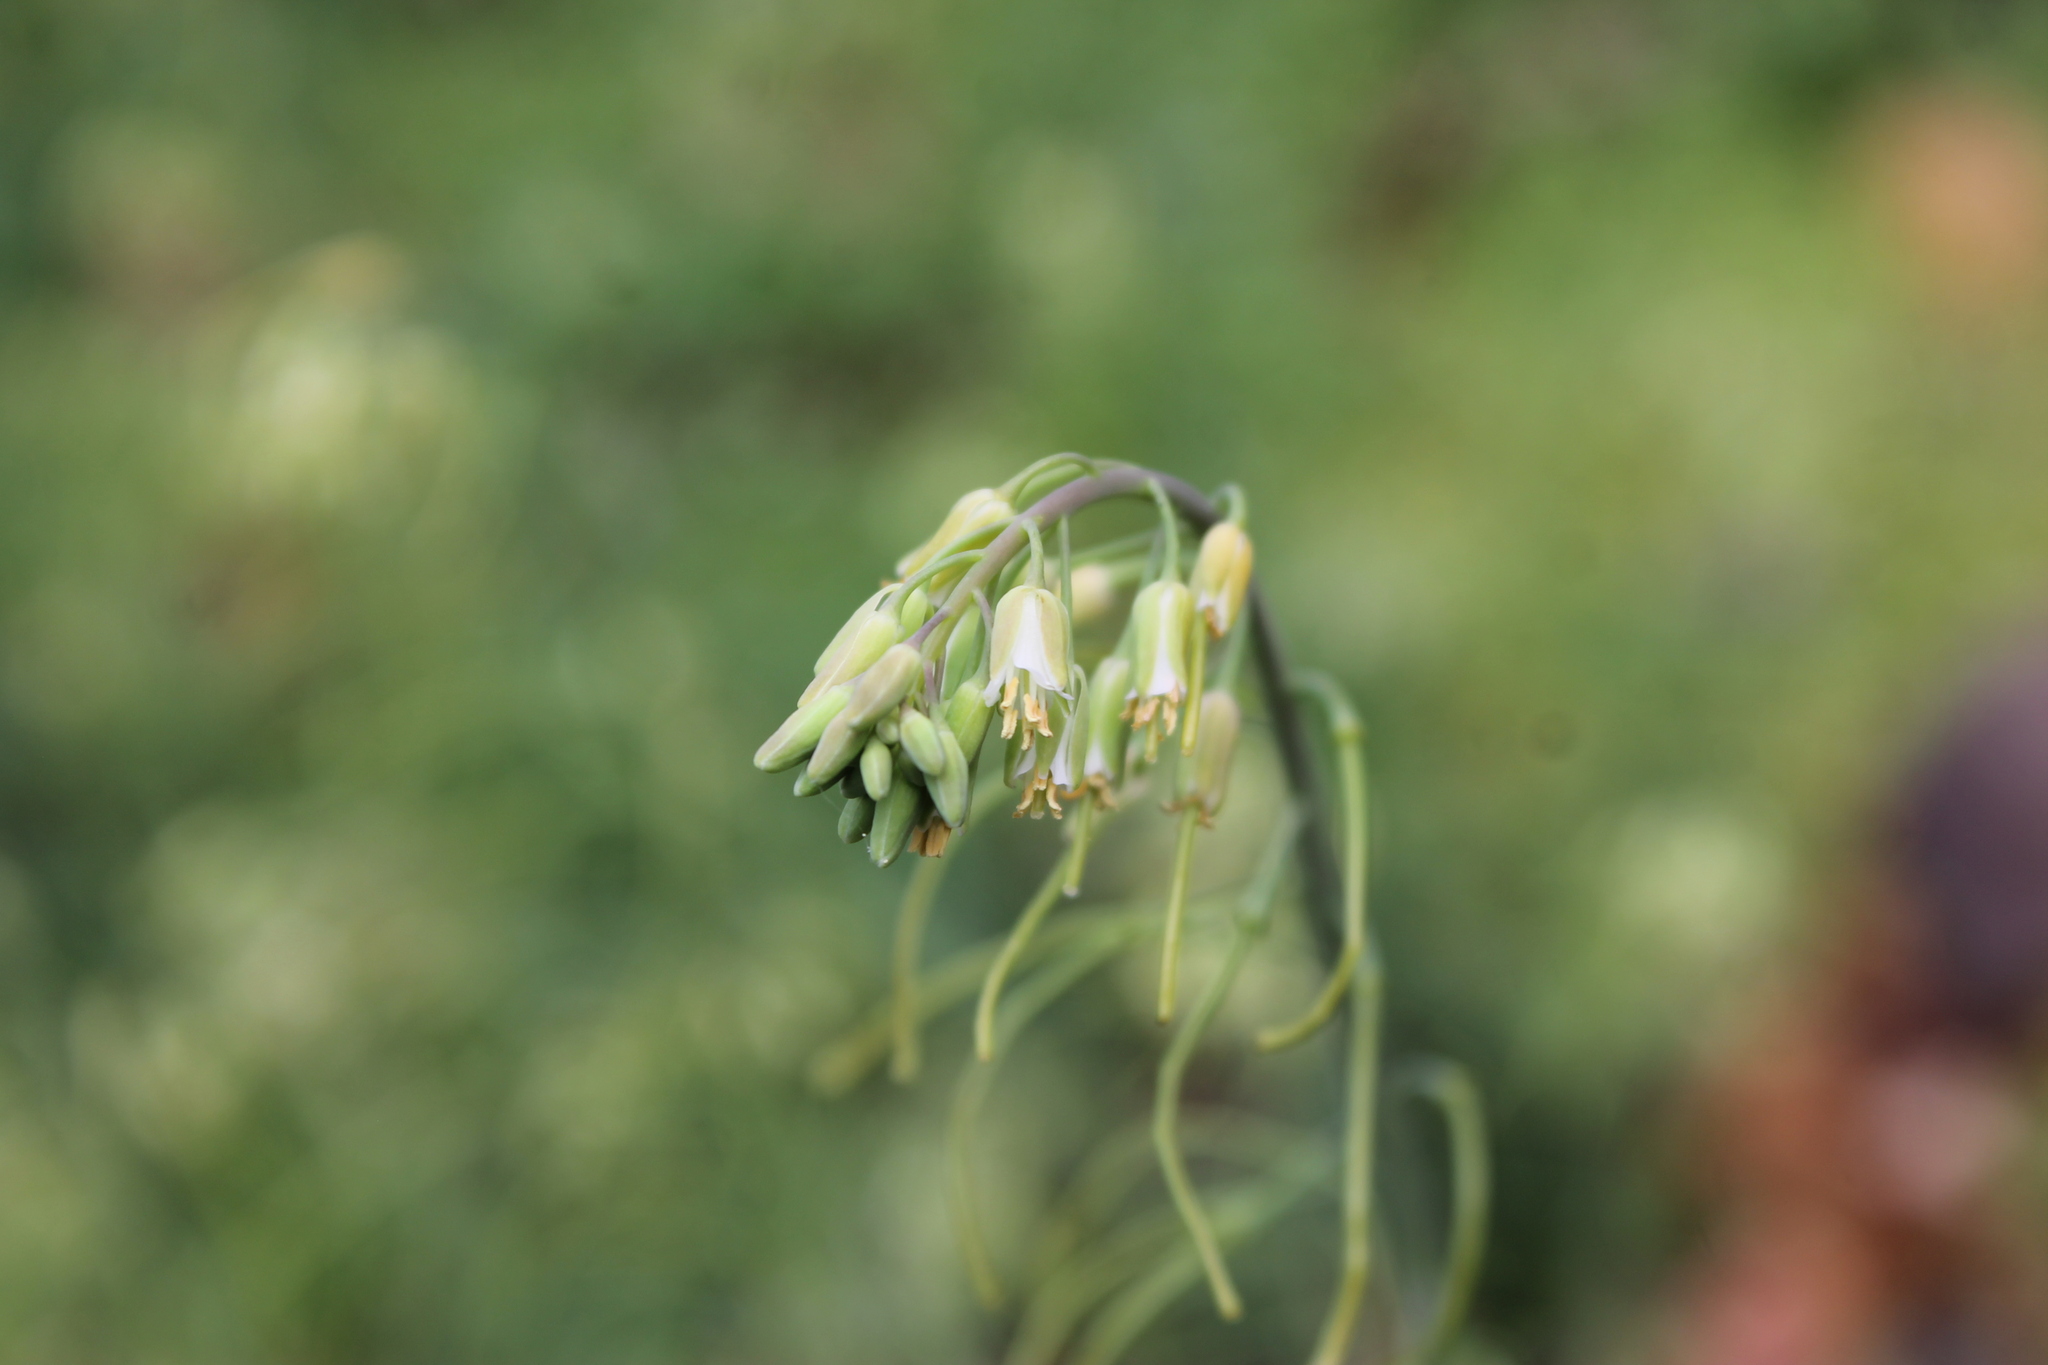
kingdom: Plantae
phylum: Tracheophyta
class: Magnoliopsida
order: Brassicales
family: Brassicaceae
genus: Borodinia
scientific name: Borodinia laevigata
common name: Smooth rockcress
